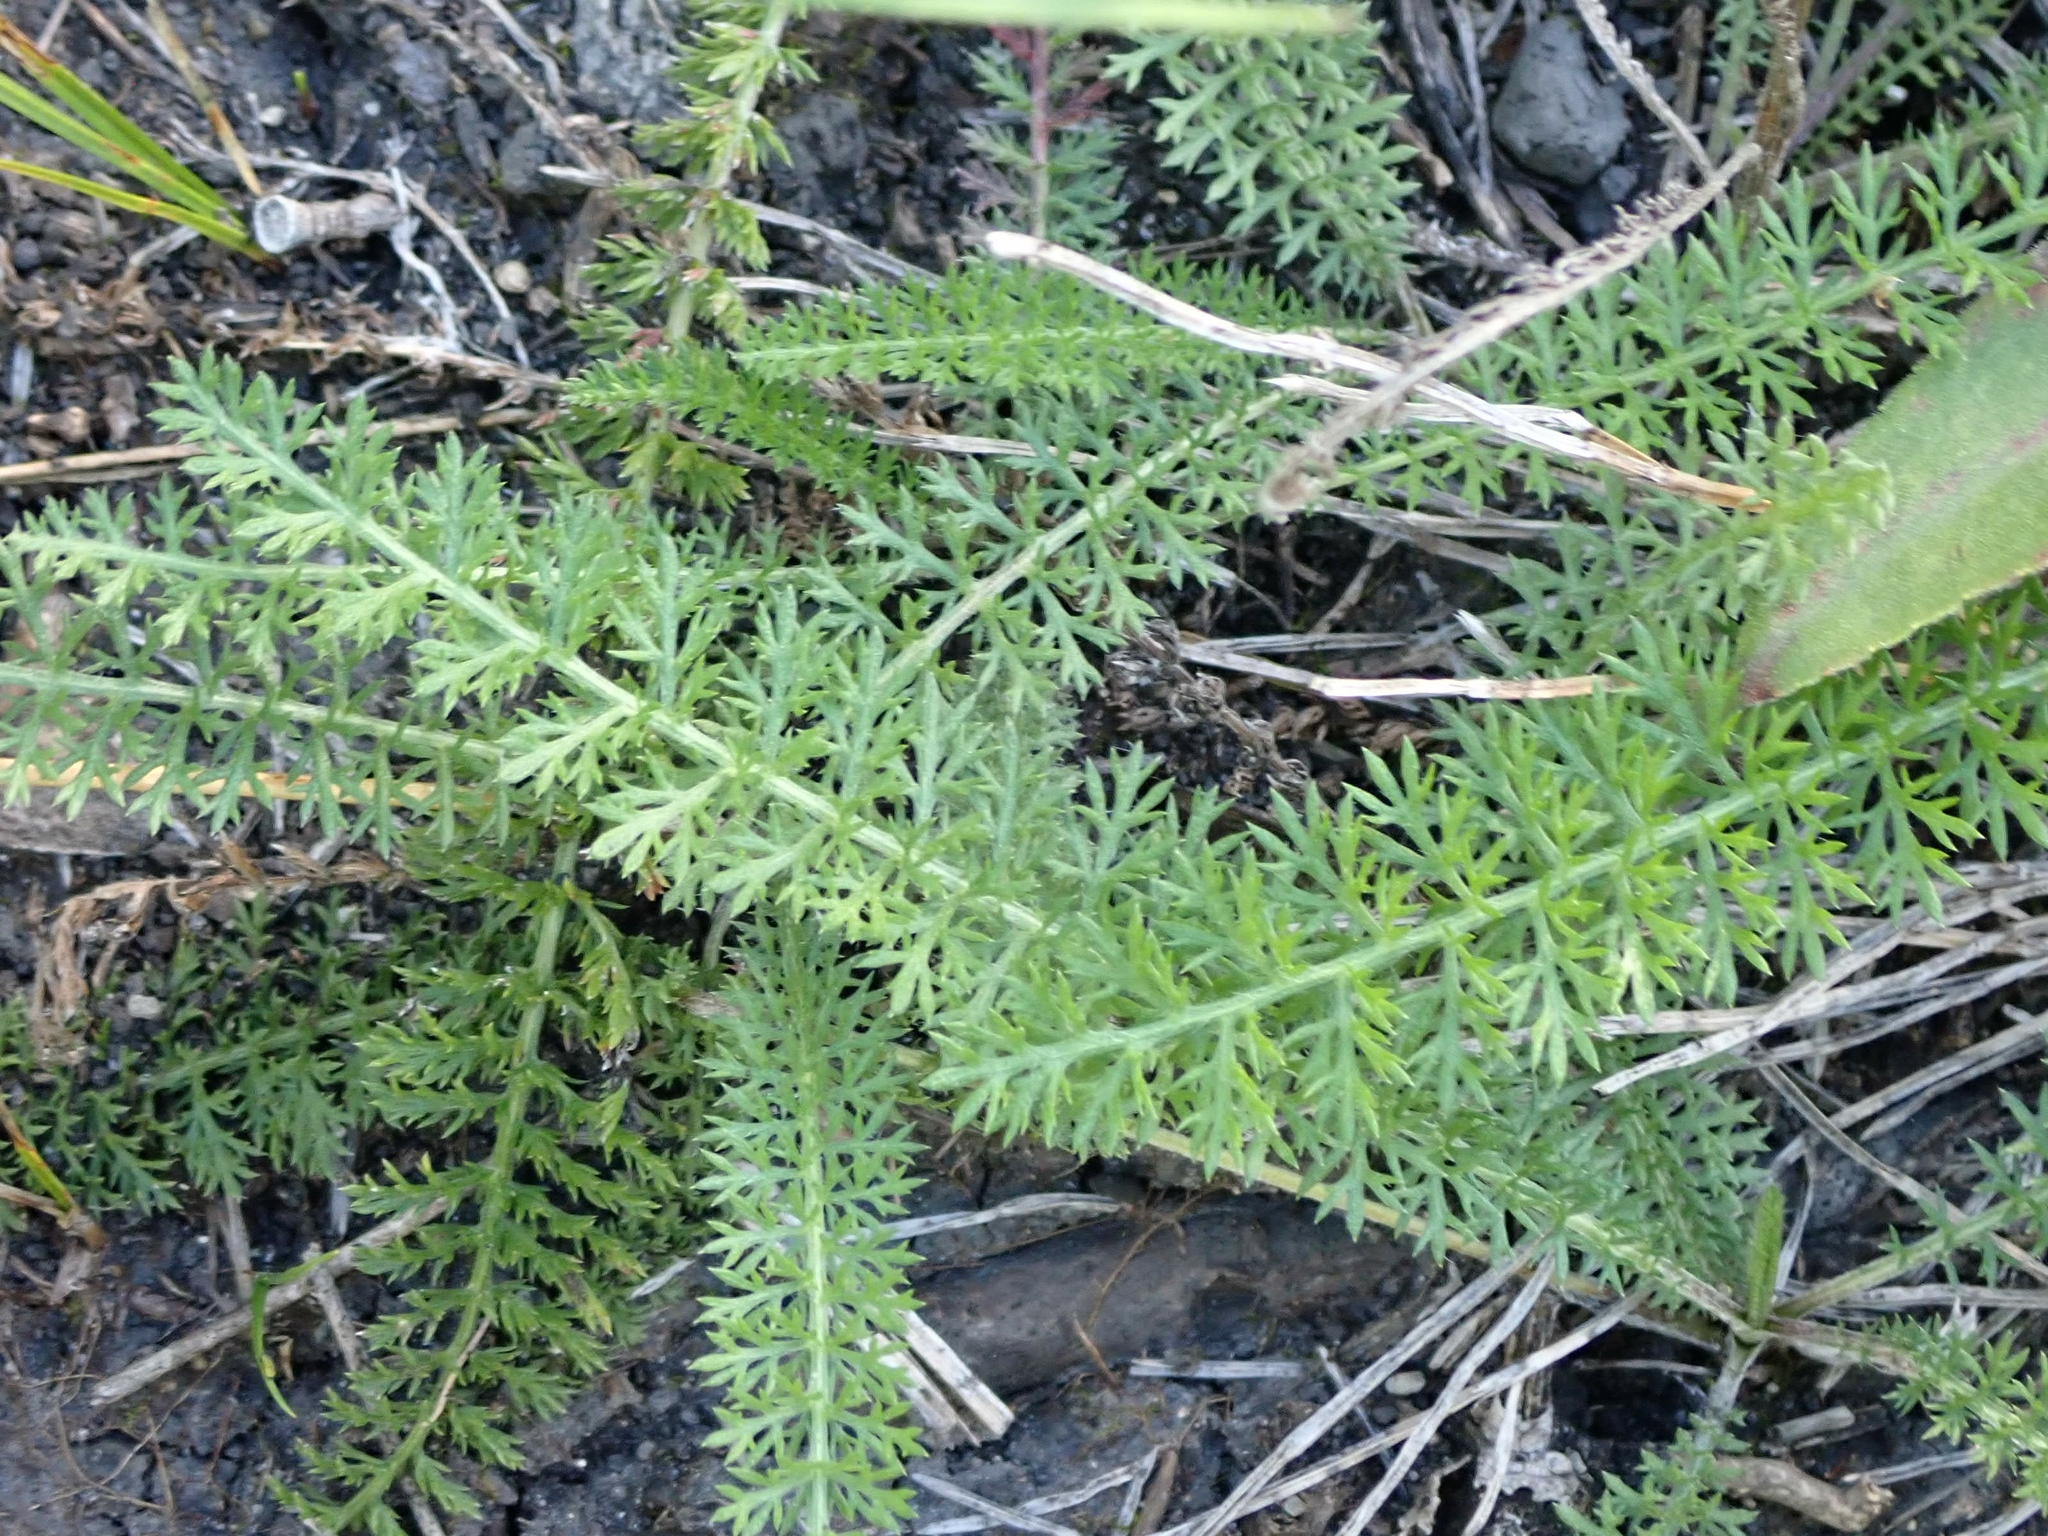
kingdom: Plantae
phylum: Tracheophyta
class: Magnoliopsida
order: Asterales
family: Asteraceae
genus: Achillea
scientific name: Achillea millefolium
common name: Yarrow
